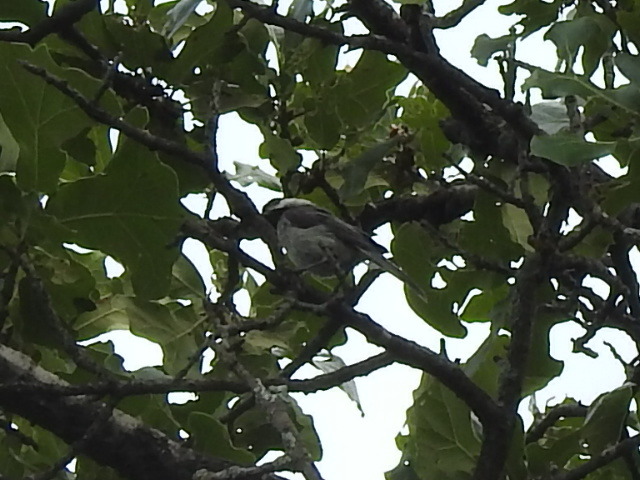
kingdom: Animalia
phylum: Chordata
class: Aves
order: Passeriformes
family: Paridae
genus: Poecile
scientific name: Poecile carolinensis
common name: Carolina chickadee
